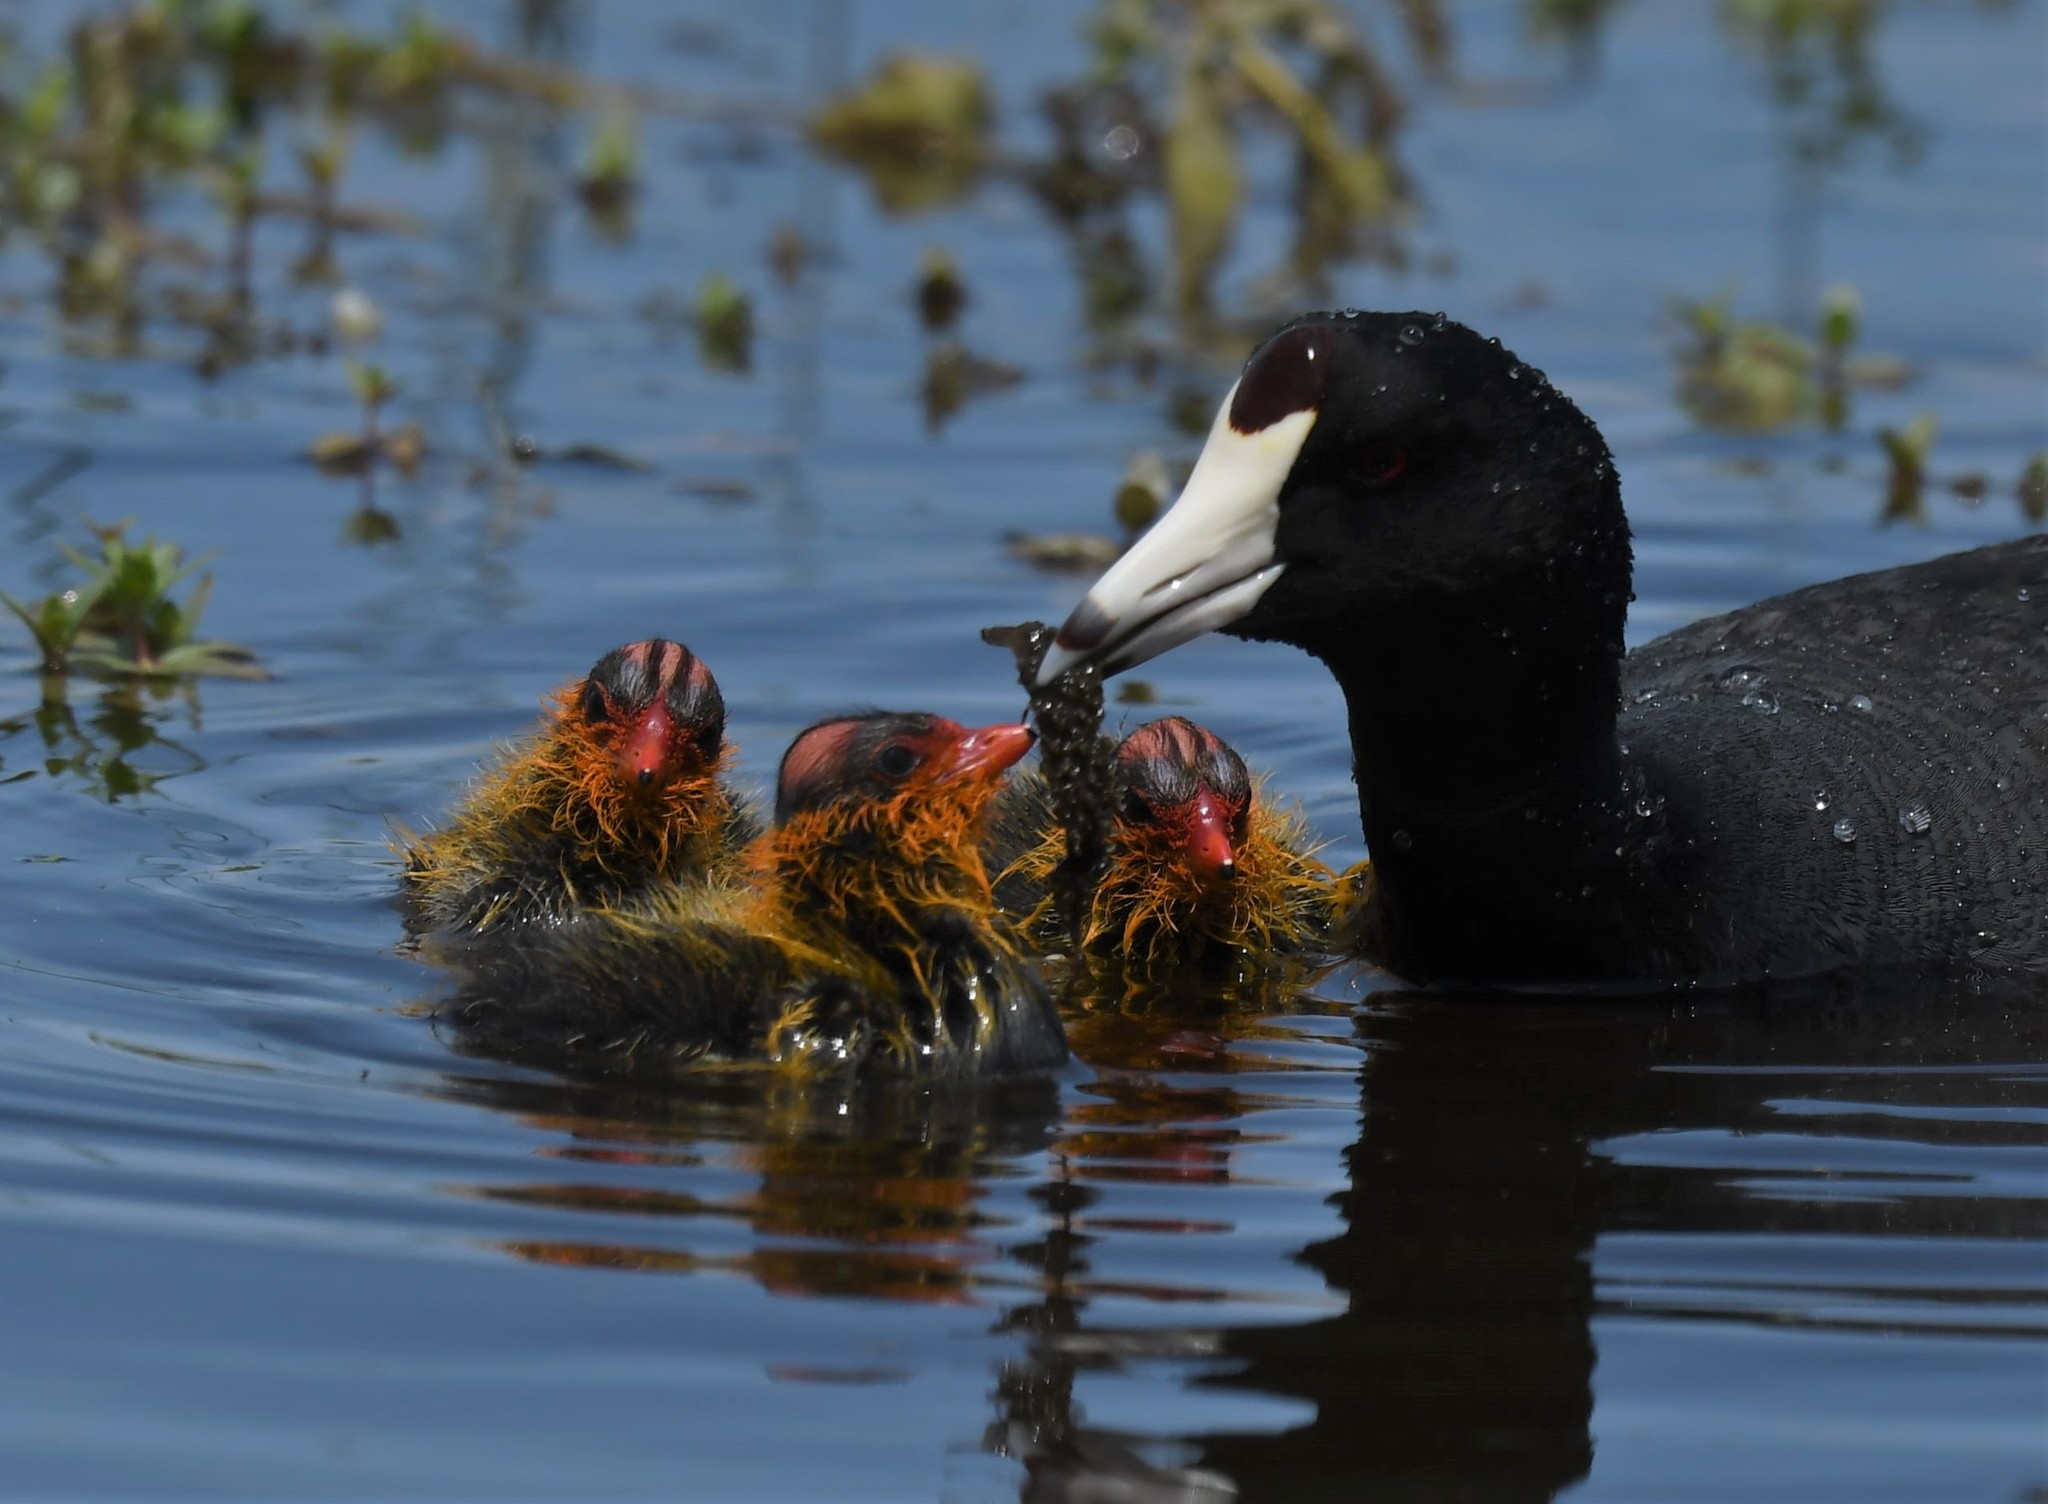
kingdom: Animalia
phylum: Chordata
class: Aves
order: Gruiformes
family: Rallidae
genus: Fulica
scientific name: Fulica americana
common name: American coot
